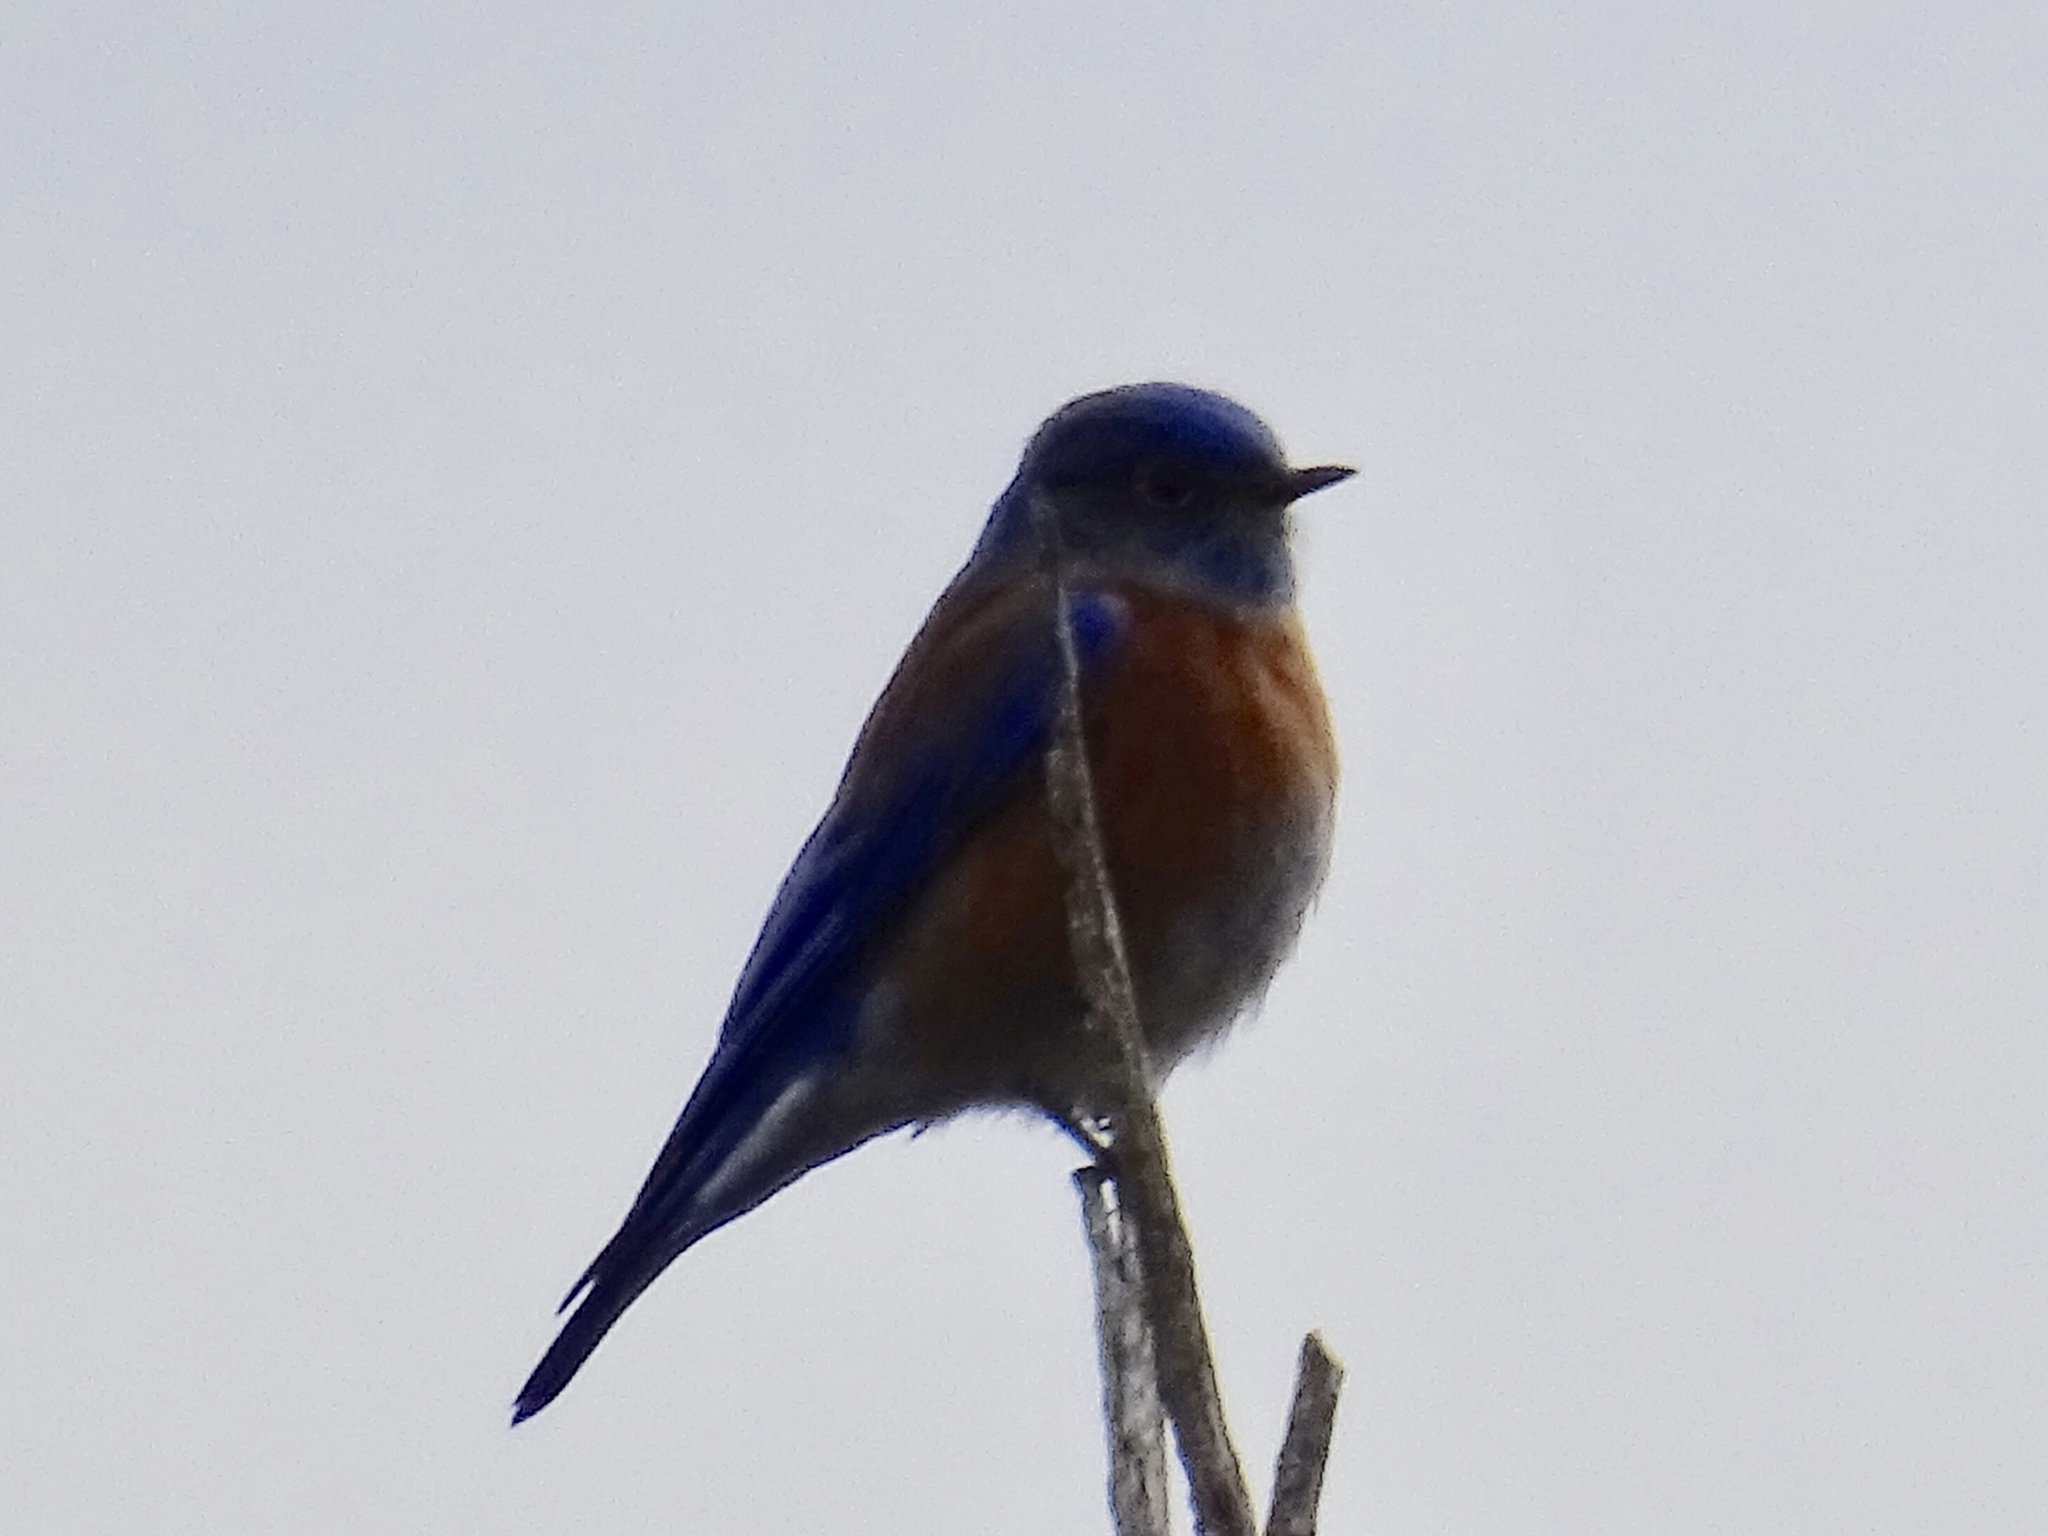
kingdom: Animalia
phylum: Chordata
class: Aves
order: Passeriformes
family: Turdidae
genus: Sialia
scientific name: Sialia mexicana
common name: Western bluebird
